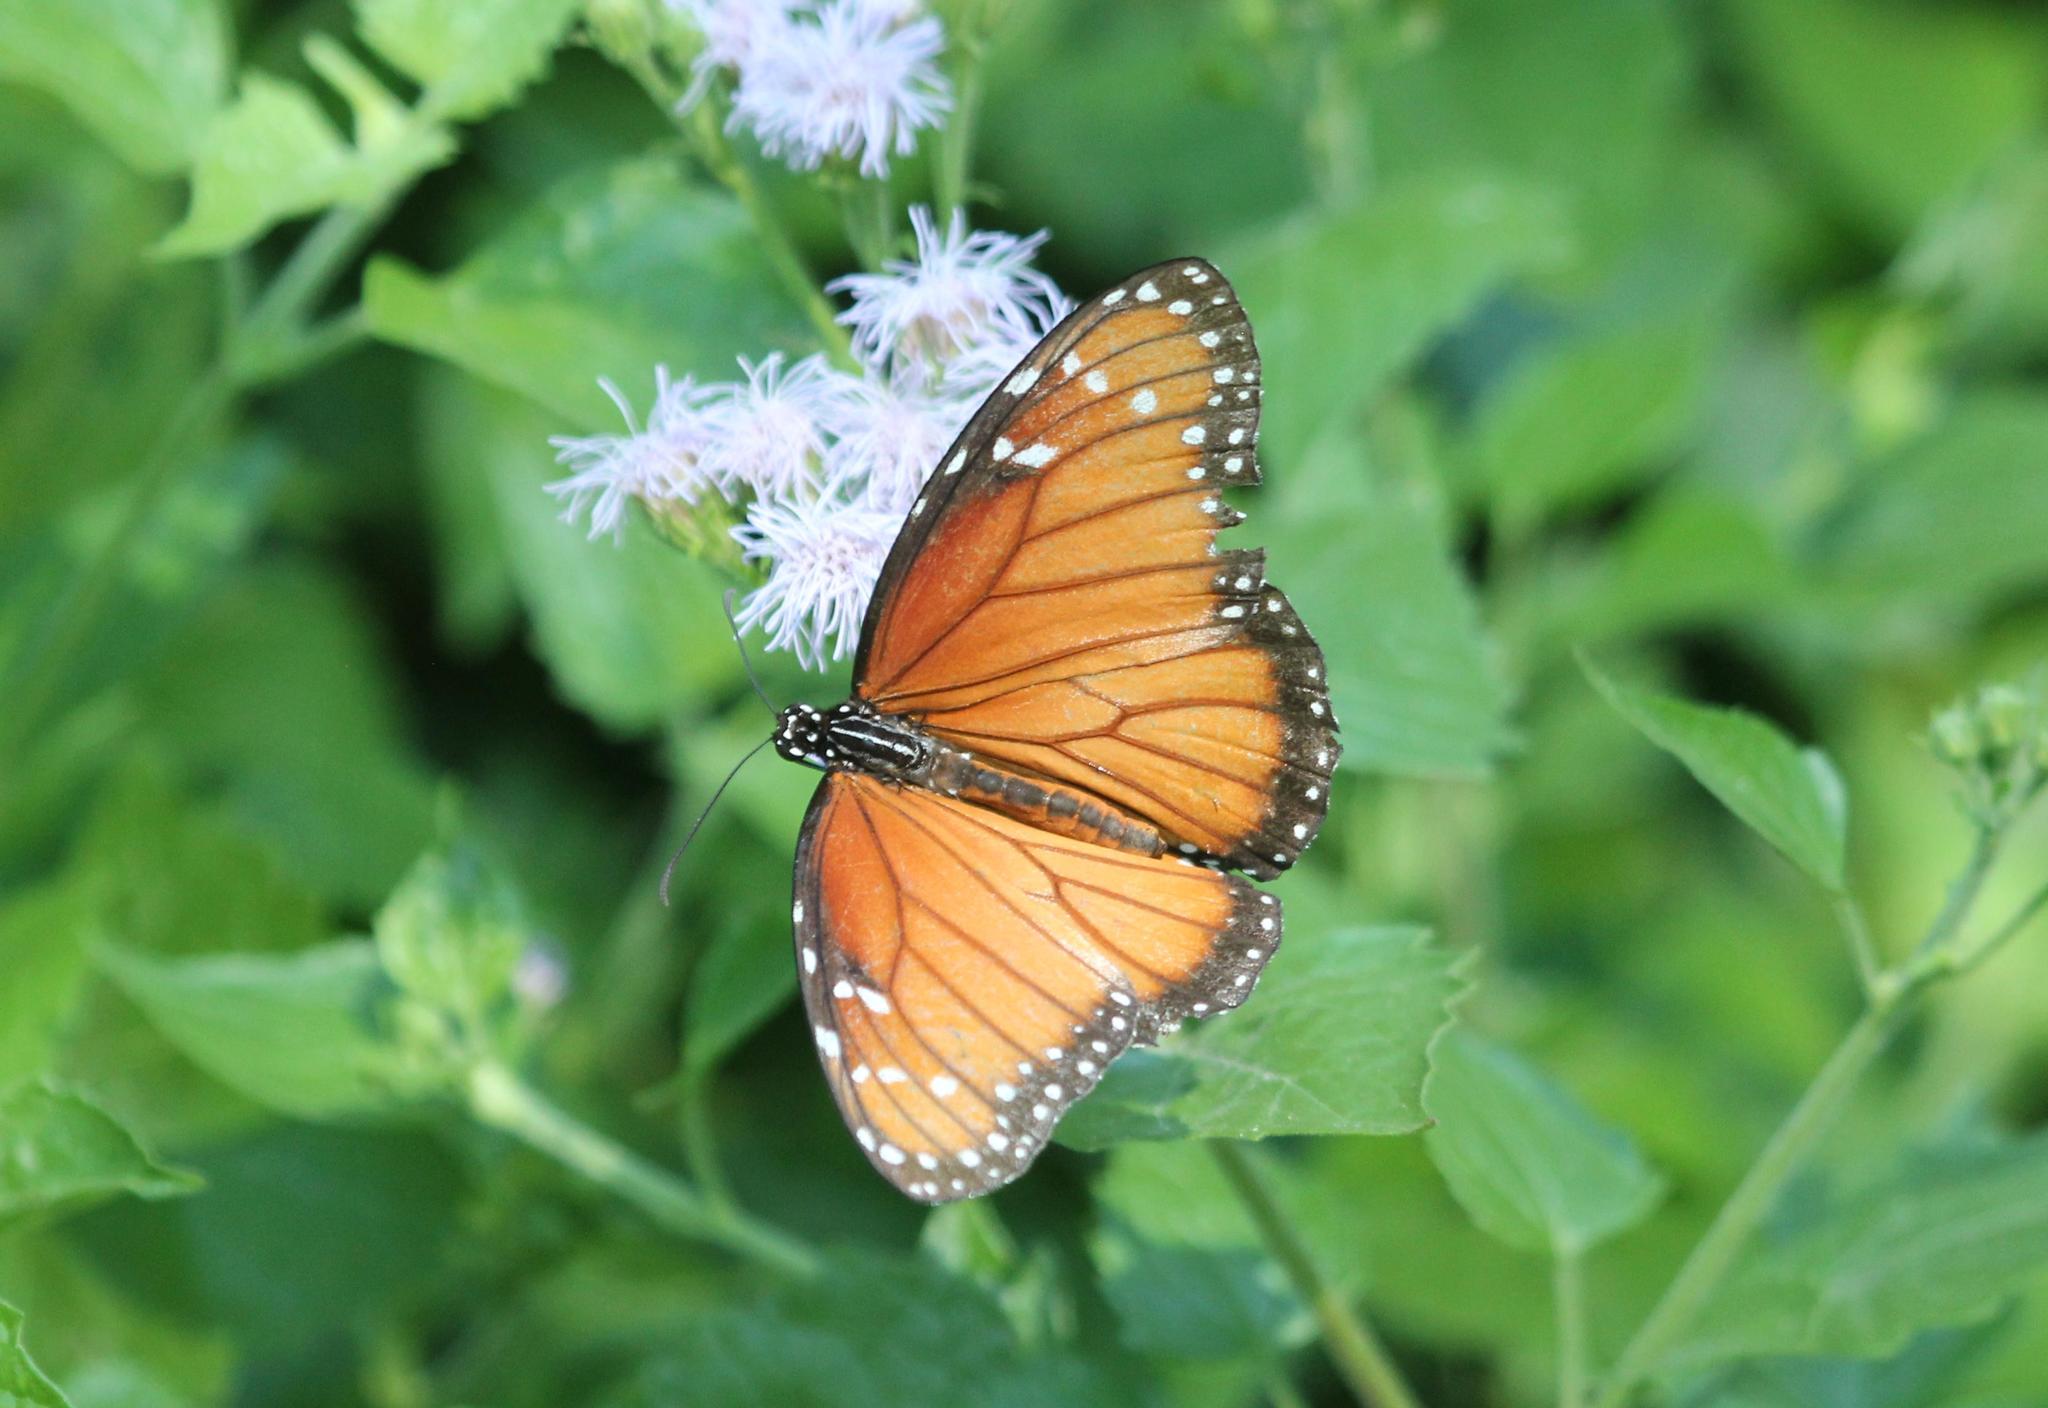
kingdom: Animalia
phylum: Arthropoda
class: Insecta
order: Lepidoptera
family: Nymphalidae
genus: Danaus
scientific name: Danaus eresimus
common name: Soldier
